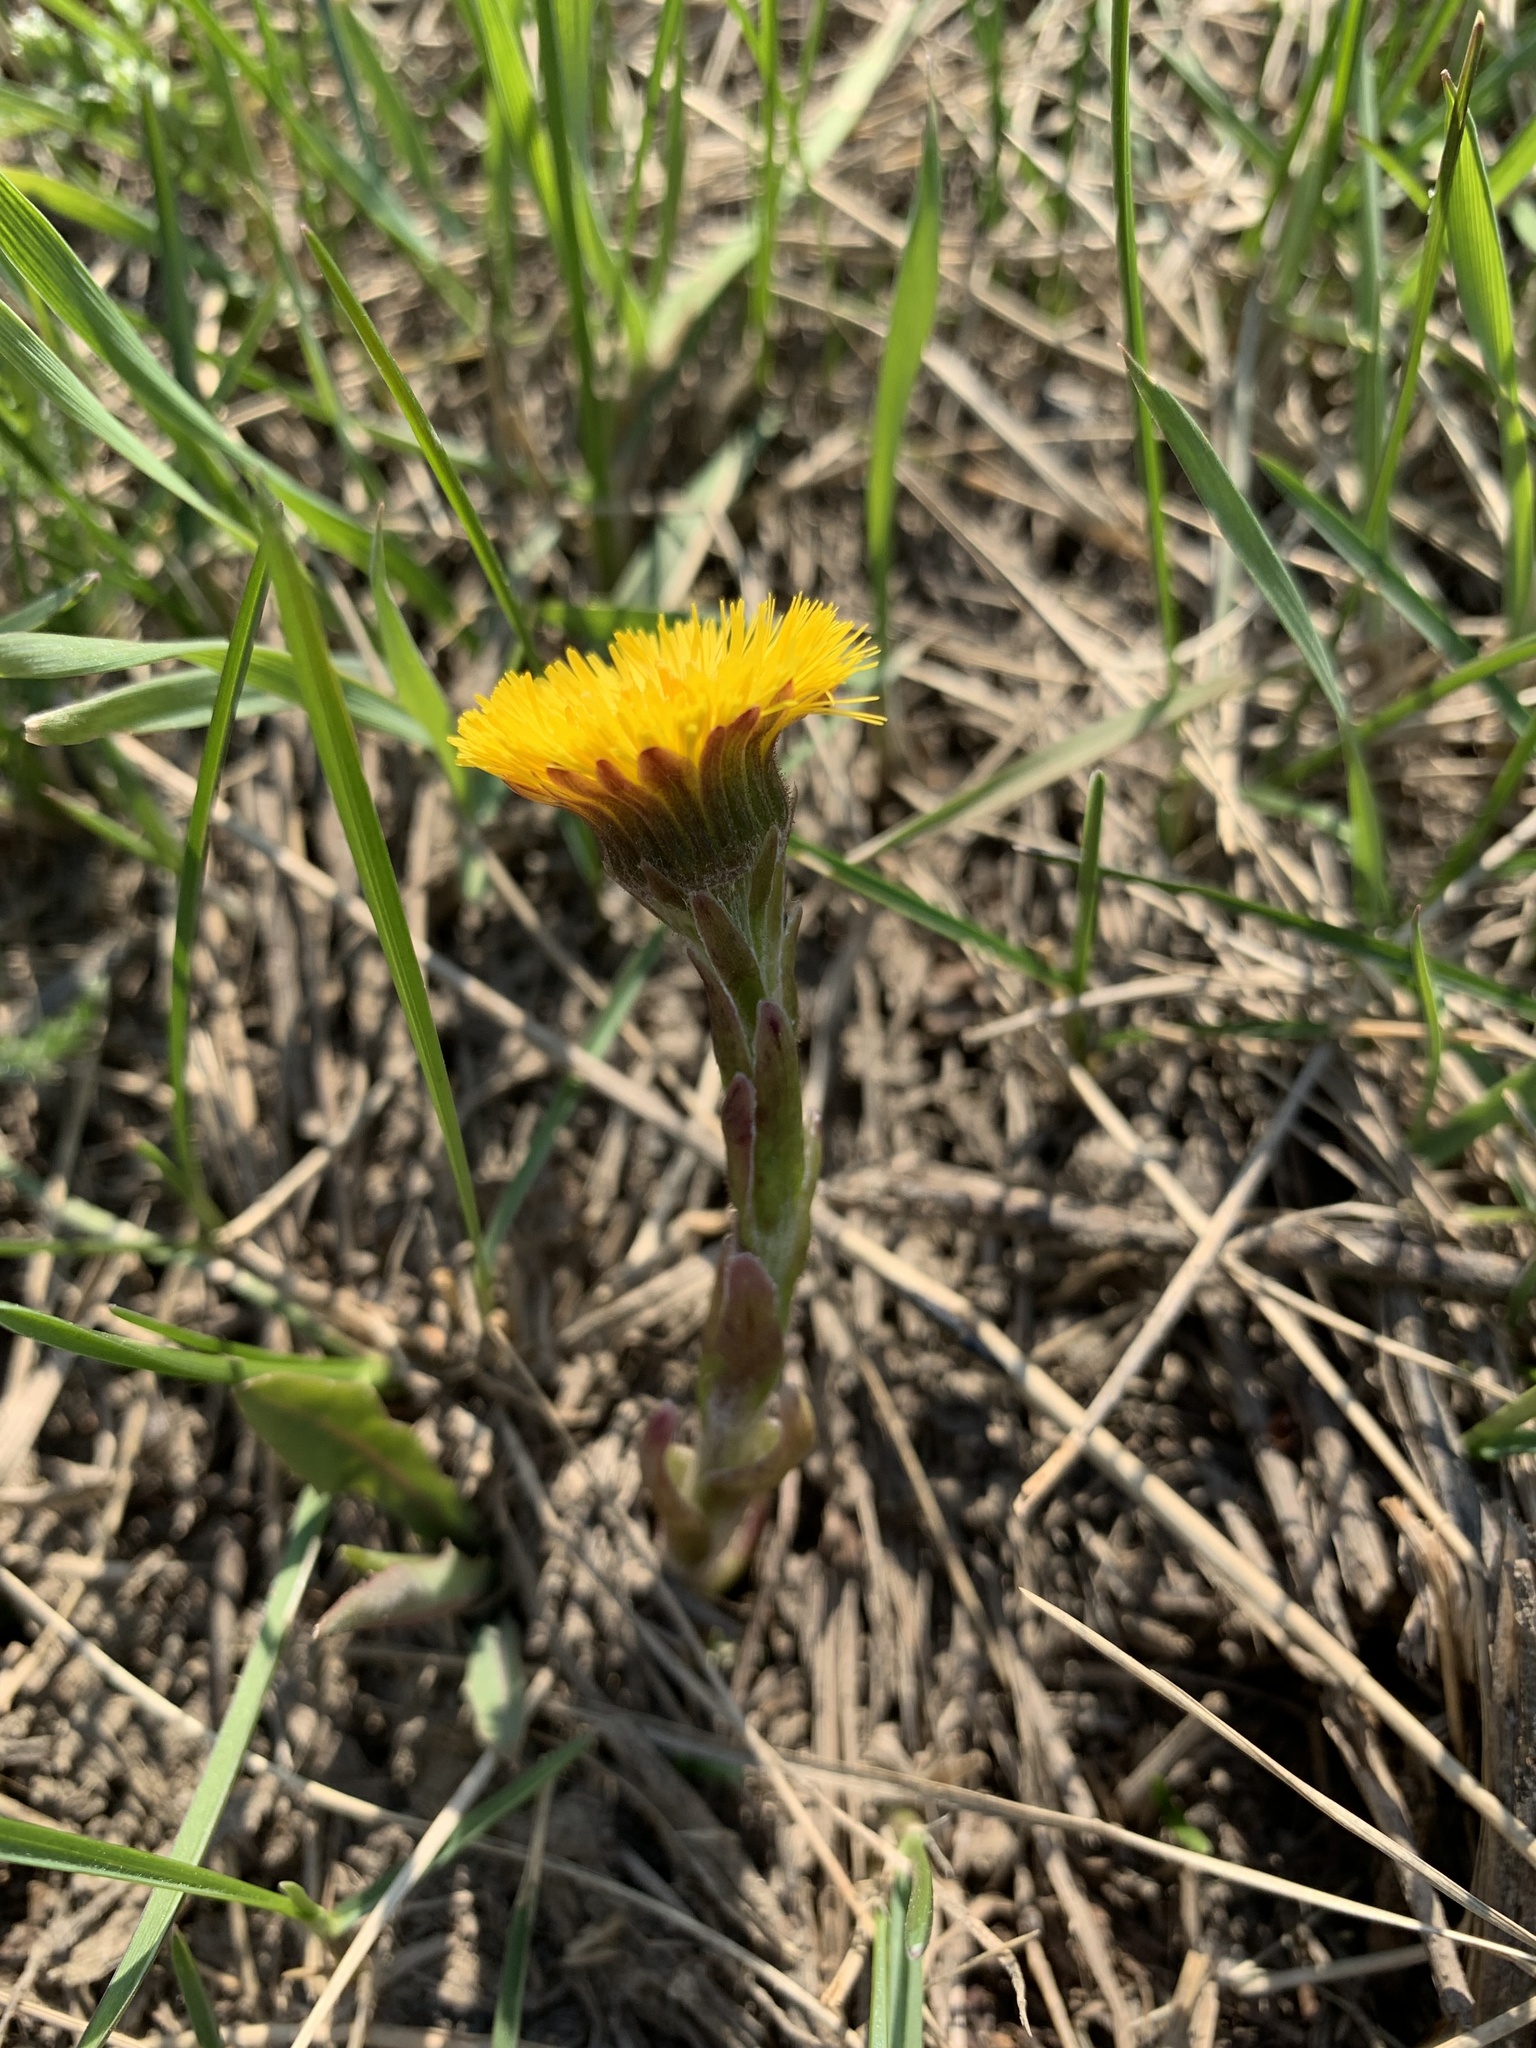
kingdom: Plantae
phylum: Tracheophyta
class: Magnoliopsida
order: Asterales
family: Asteraceae
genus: Tussilago
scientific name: Tussilago farfara
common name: Coltsfoot
